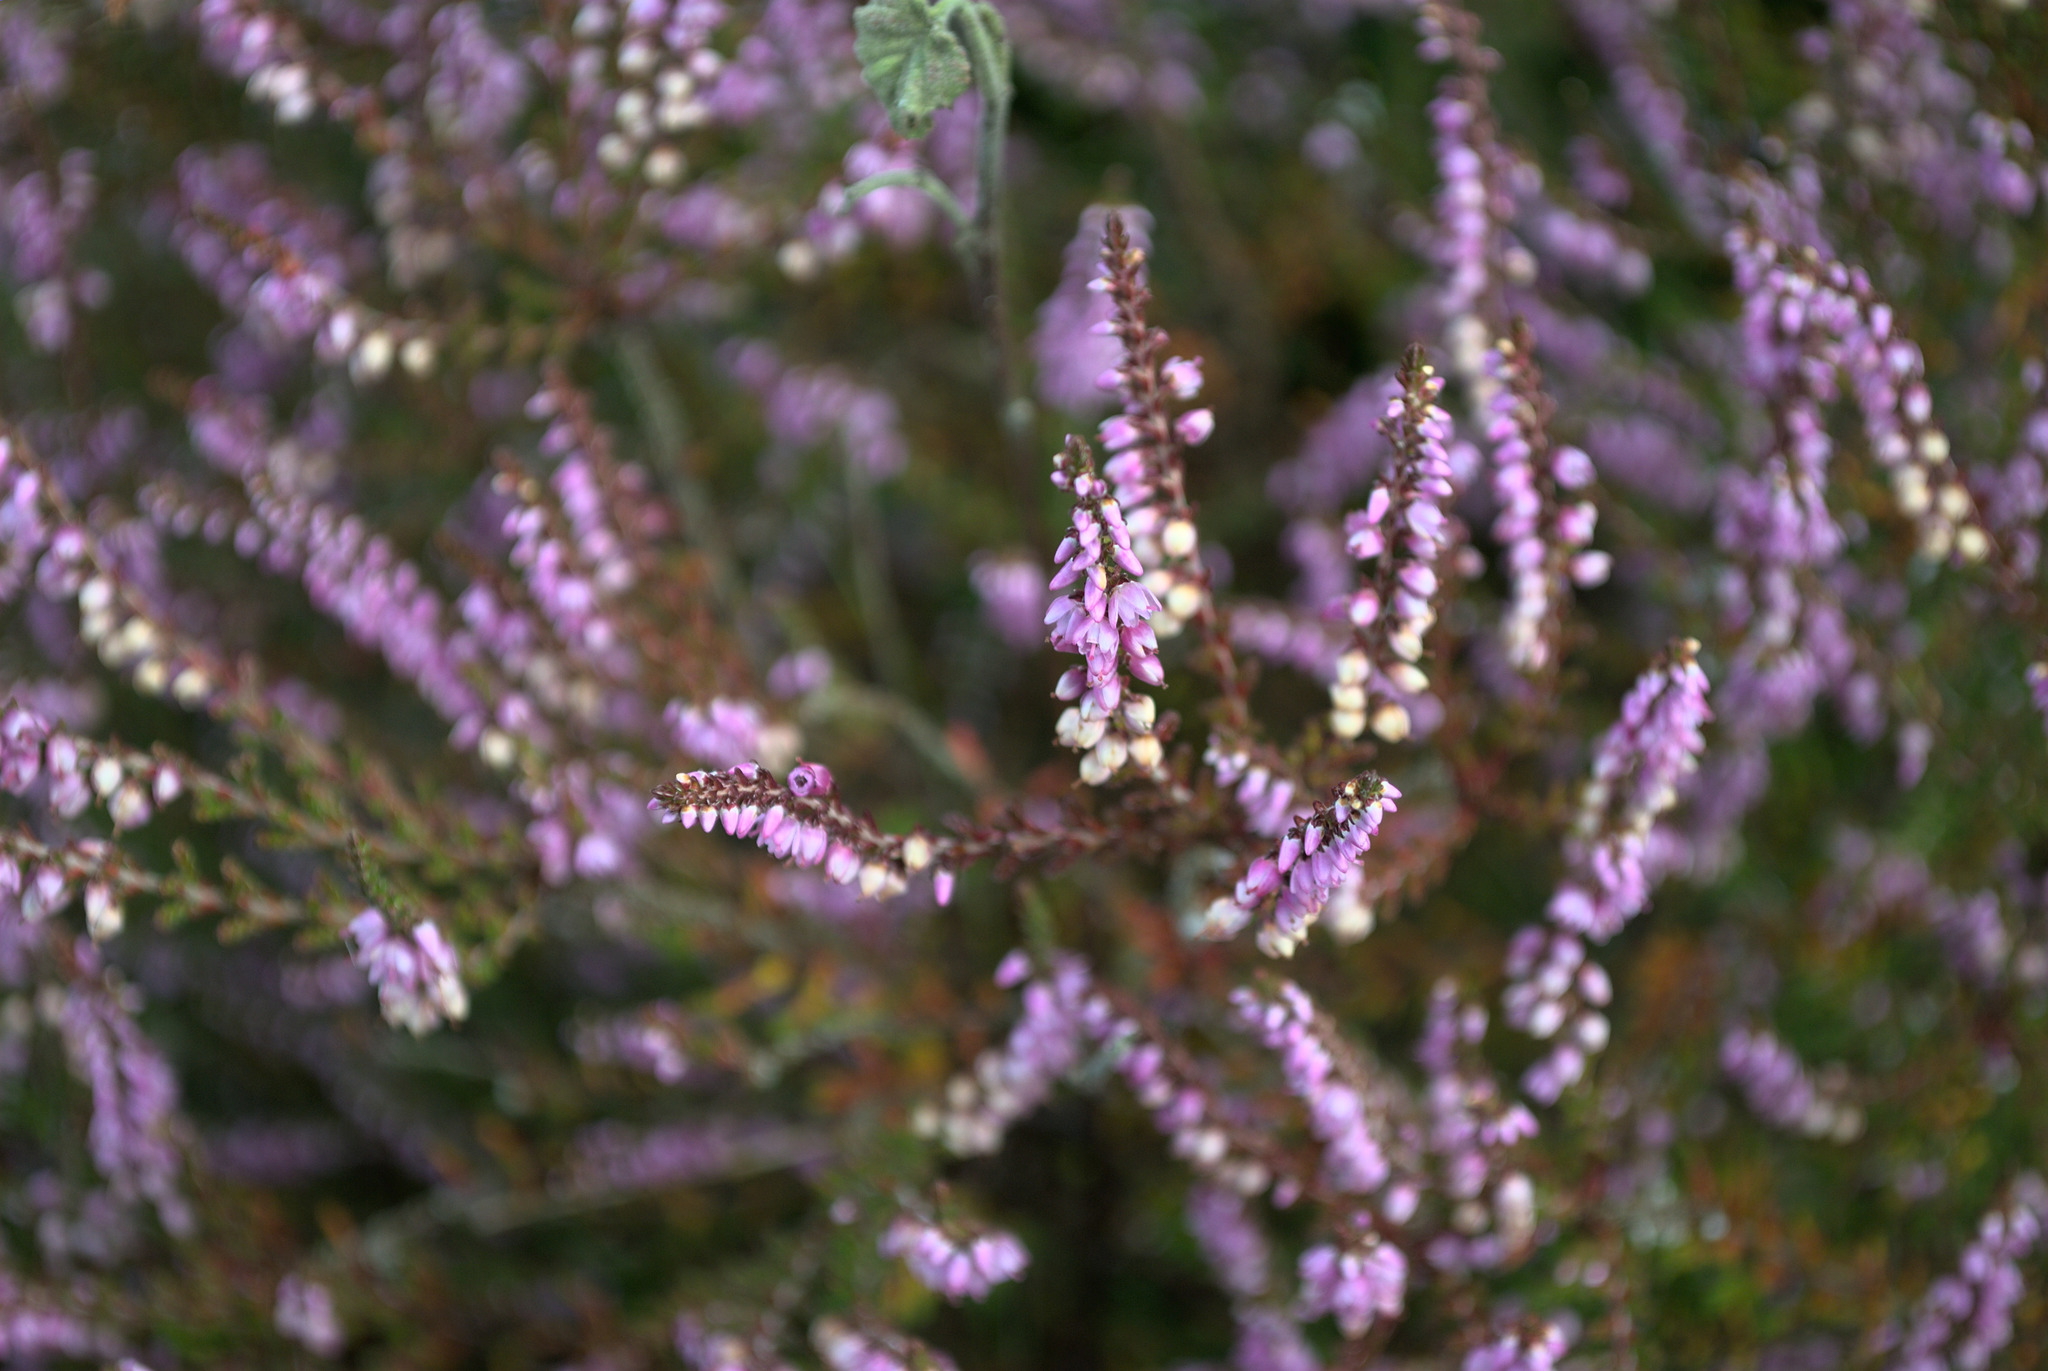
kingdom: Plantae
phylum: Tracheophyta
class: Magnoliopsida
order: Ericales
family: Ericaceae
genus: Calluna
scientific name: Calluna vulgaris
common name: Heather
